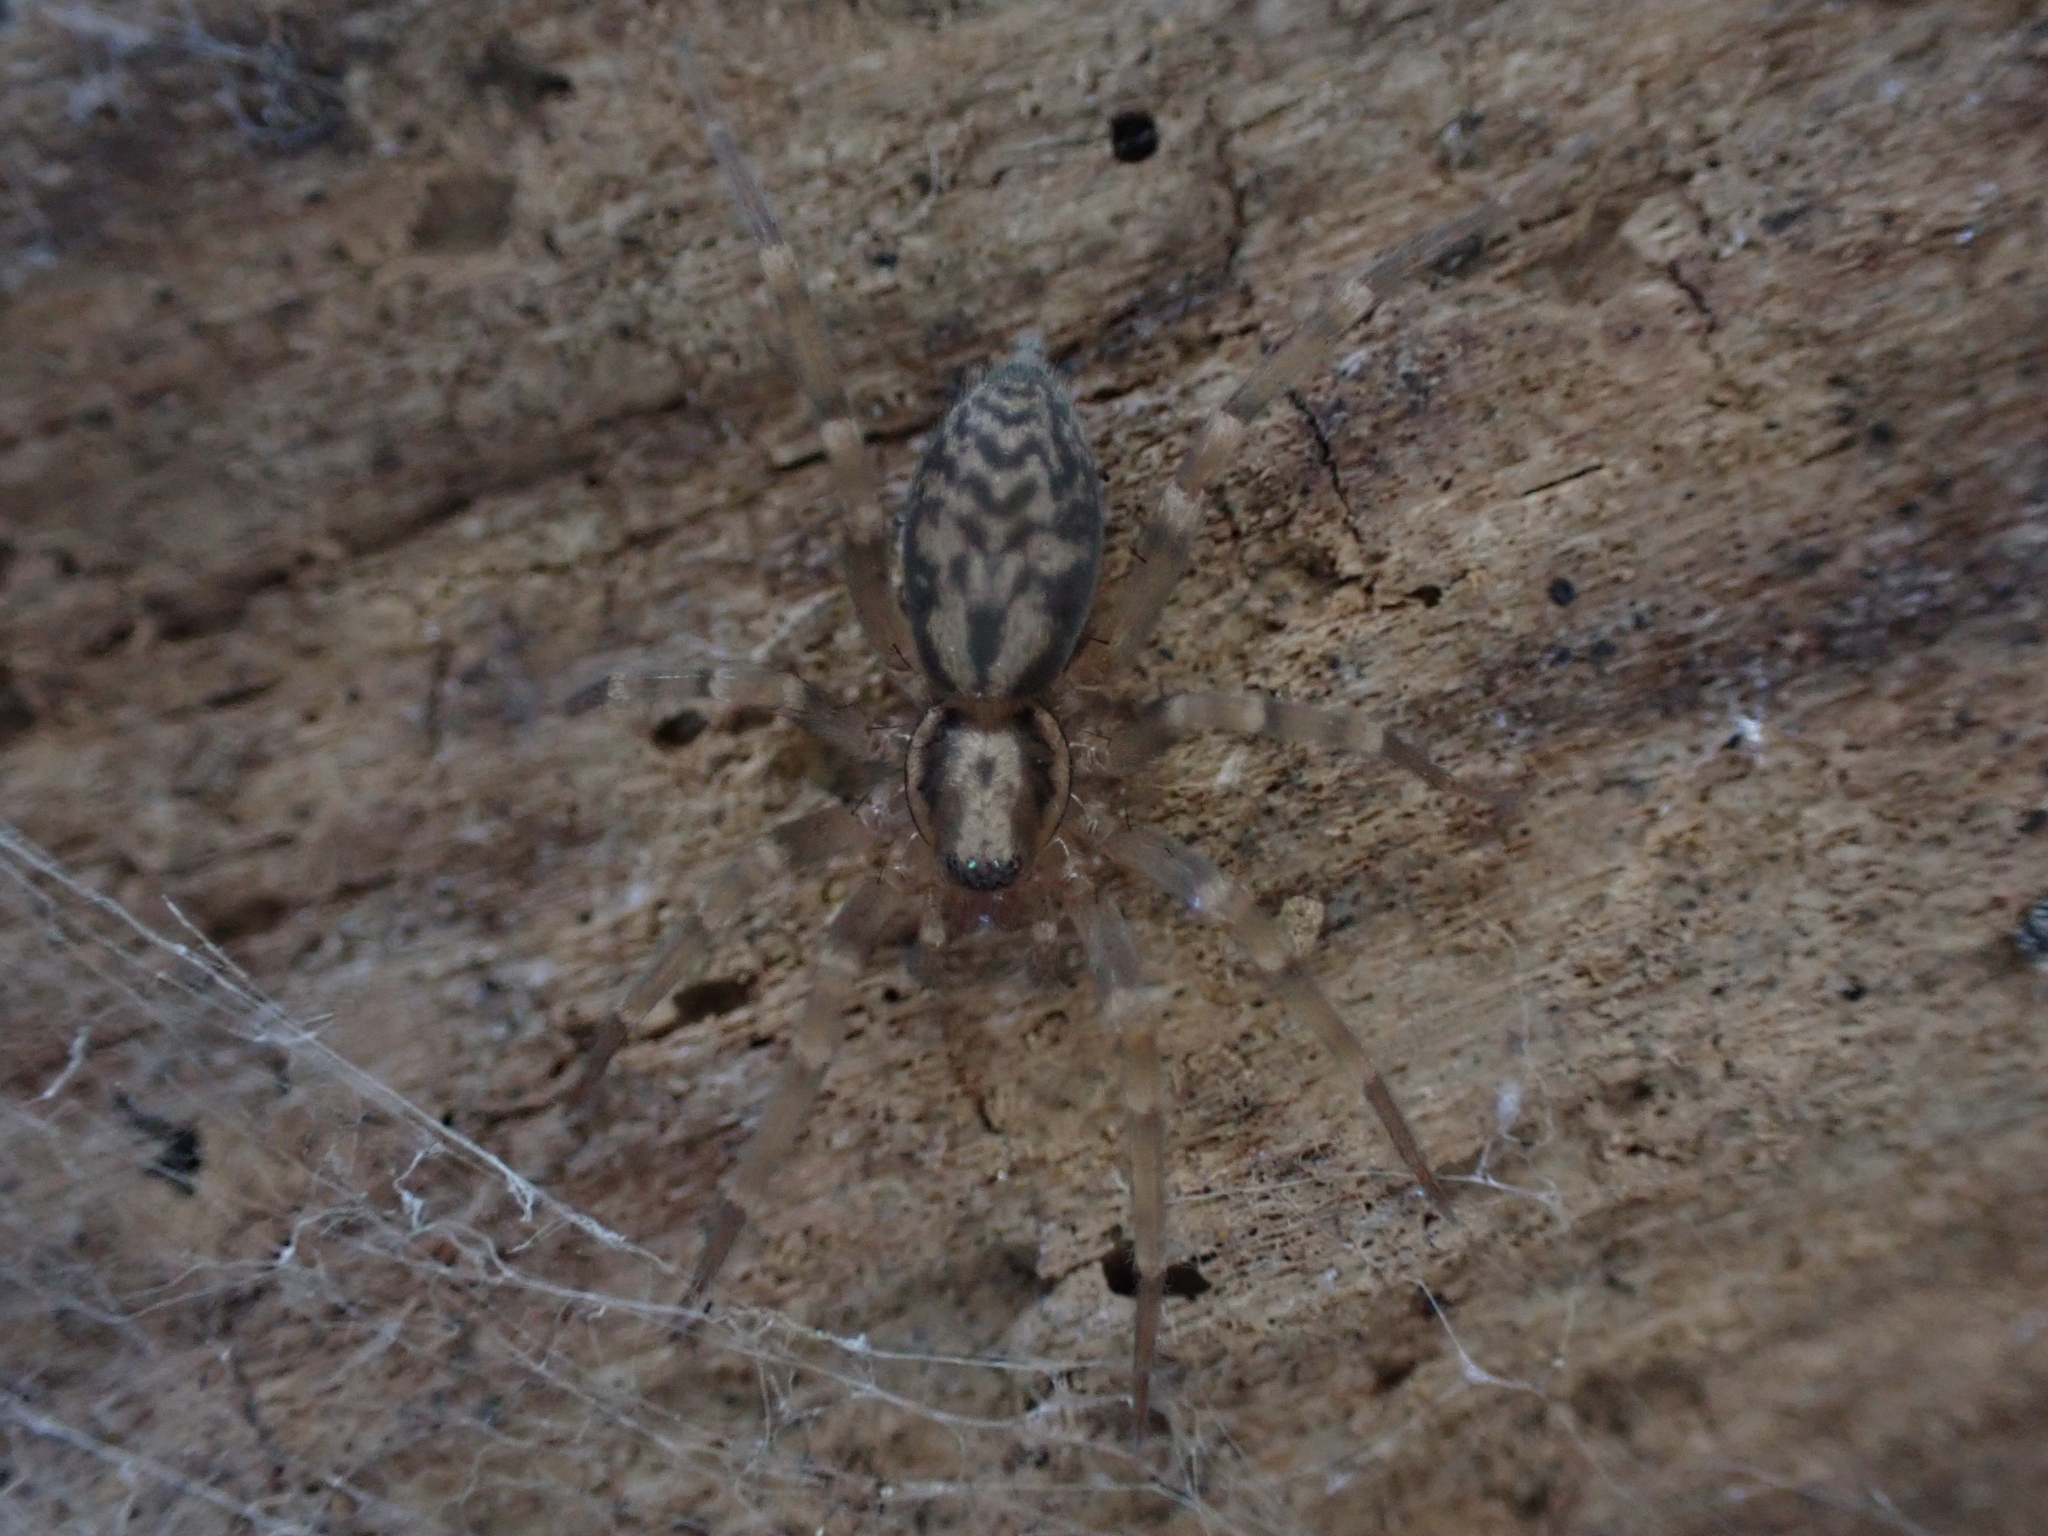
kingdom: Animalia
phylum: Arthropoda
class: Arachnida
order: Araneae
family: Liocranidae
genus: Liocranum
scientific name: Liocranum rupicola
